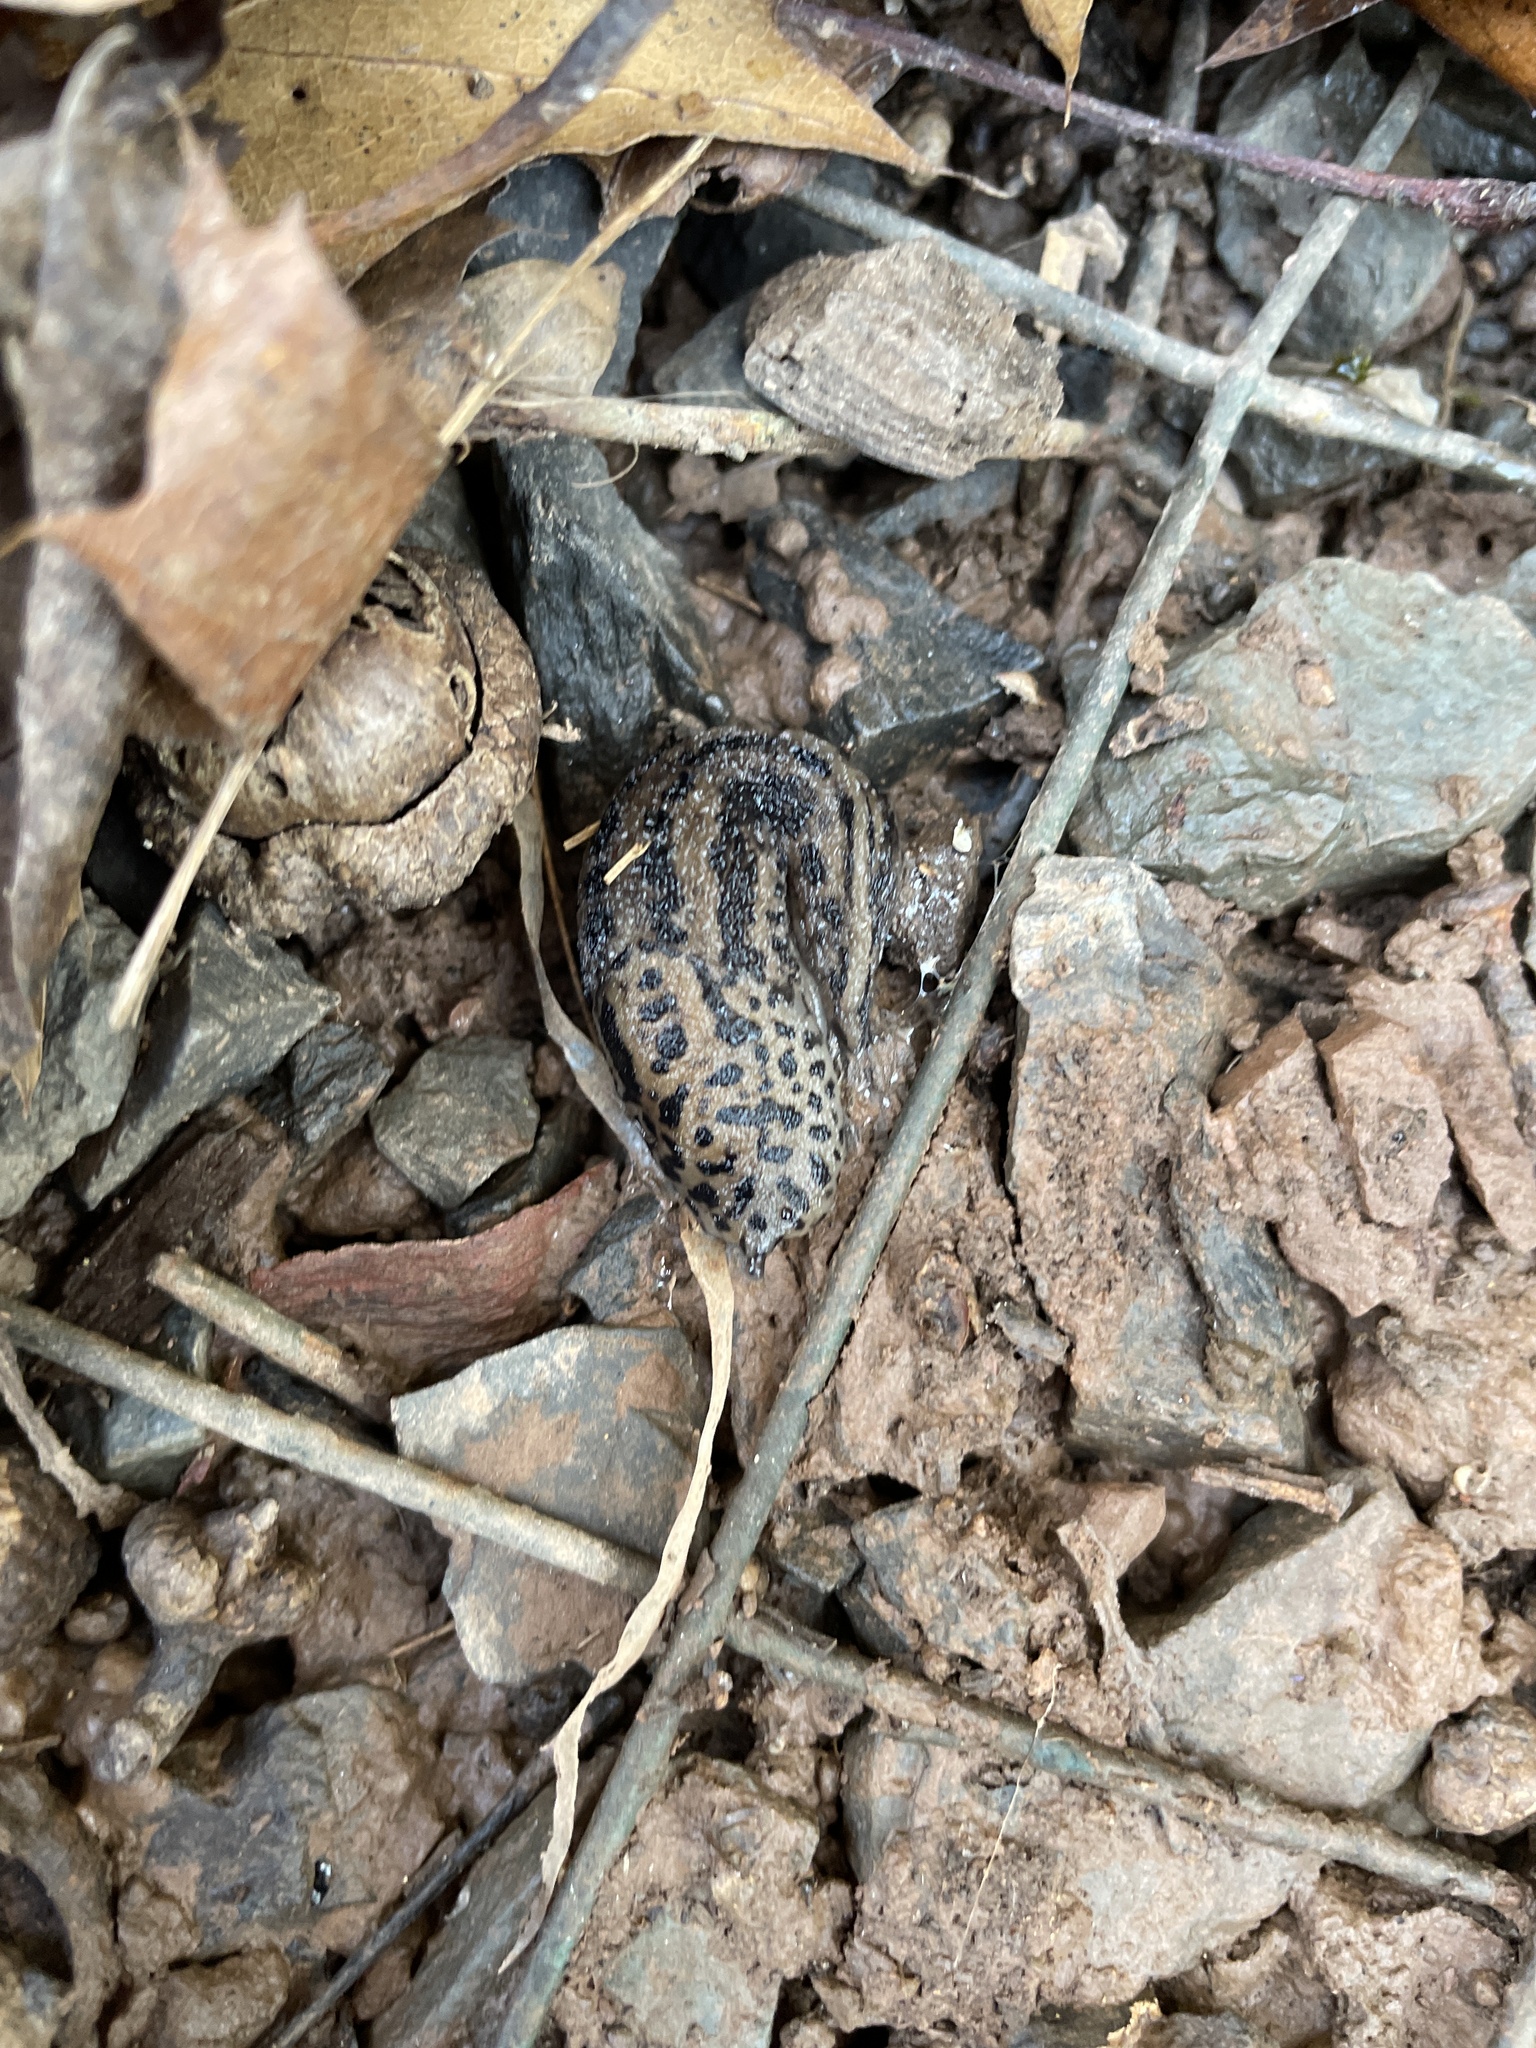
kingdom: Animalia
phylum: Mollusca
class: Gastropoda
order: Stylommatophora
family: Limacidae
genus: Limax
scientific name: Limax maximus
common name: Great grey slug
